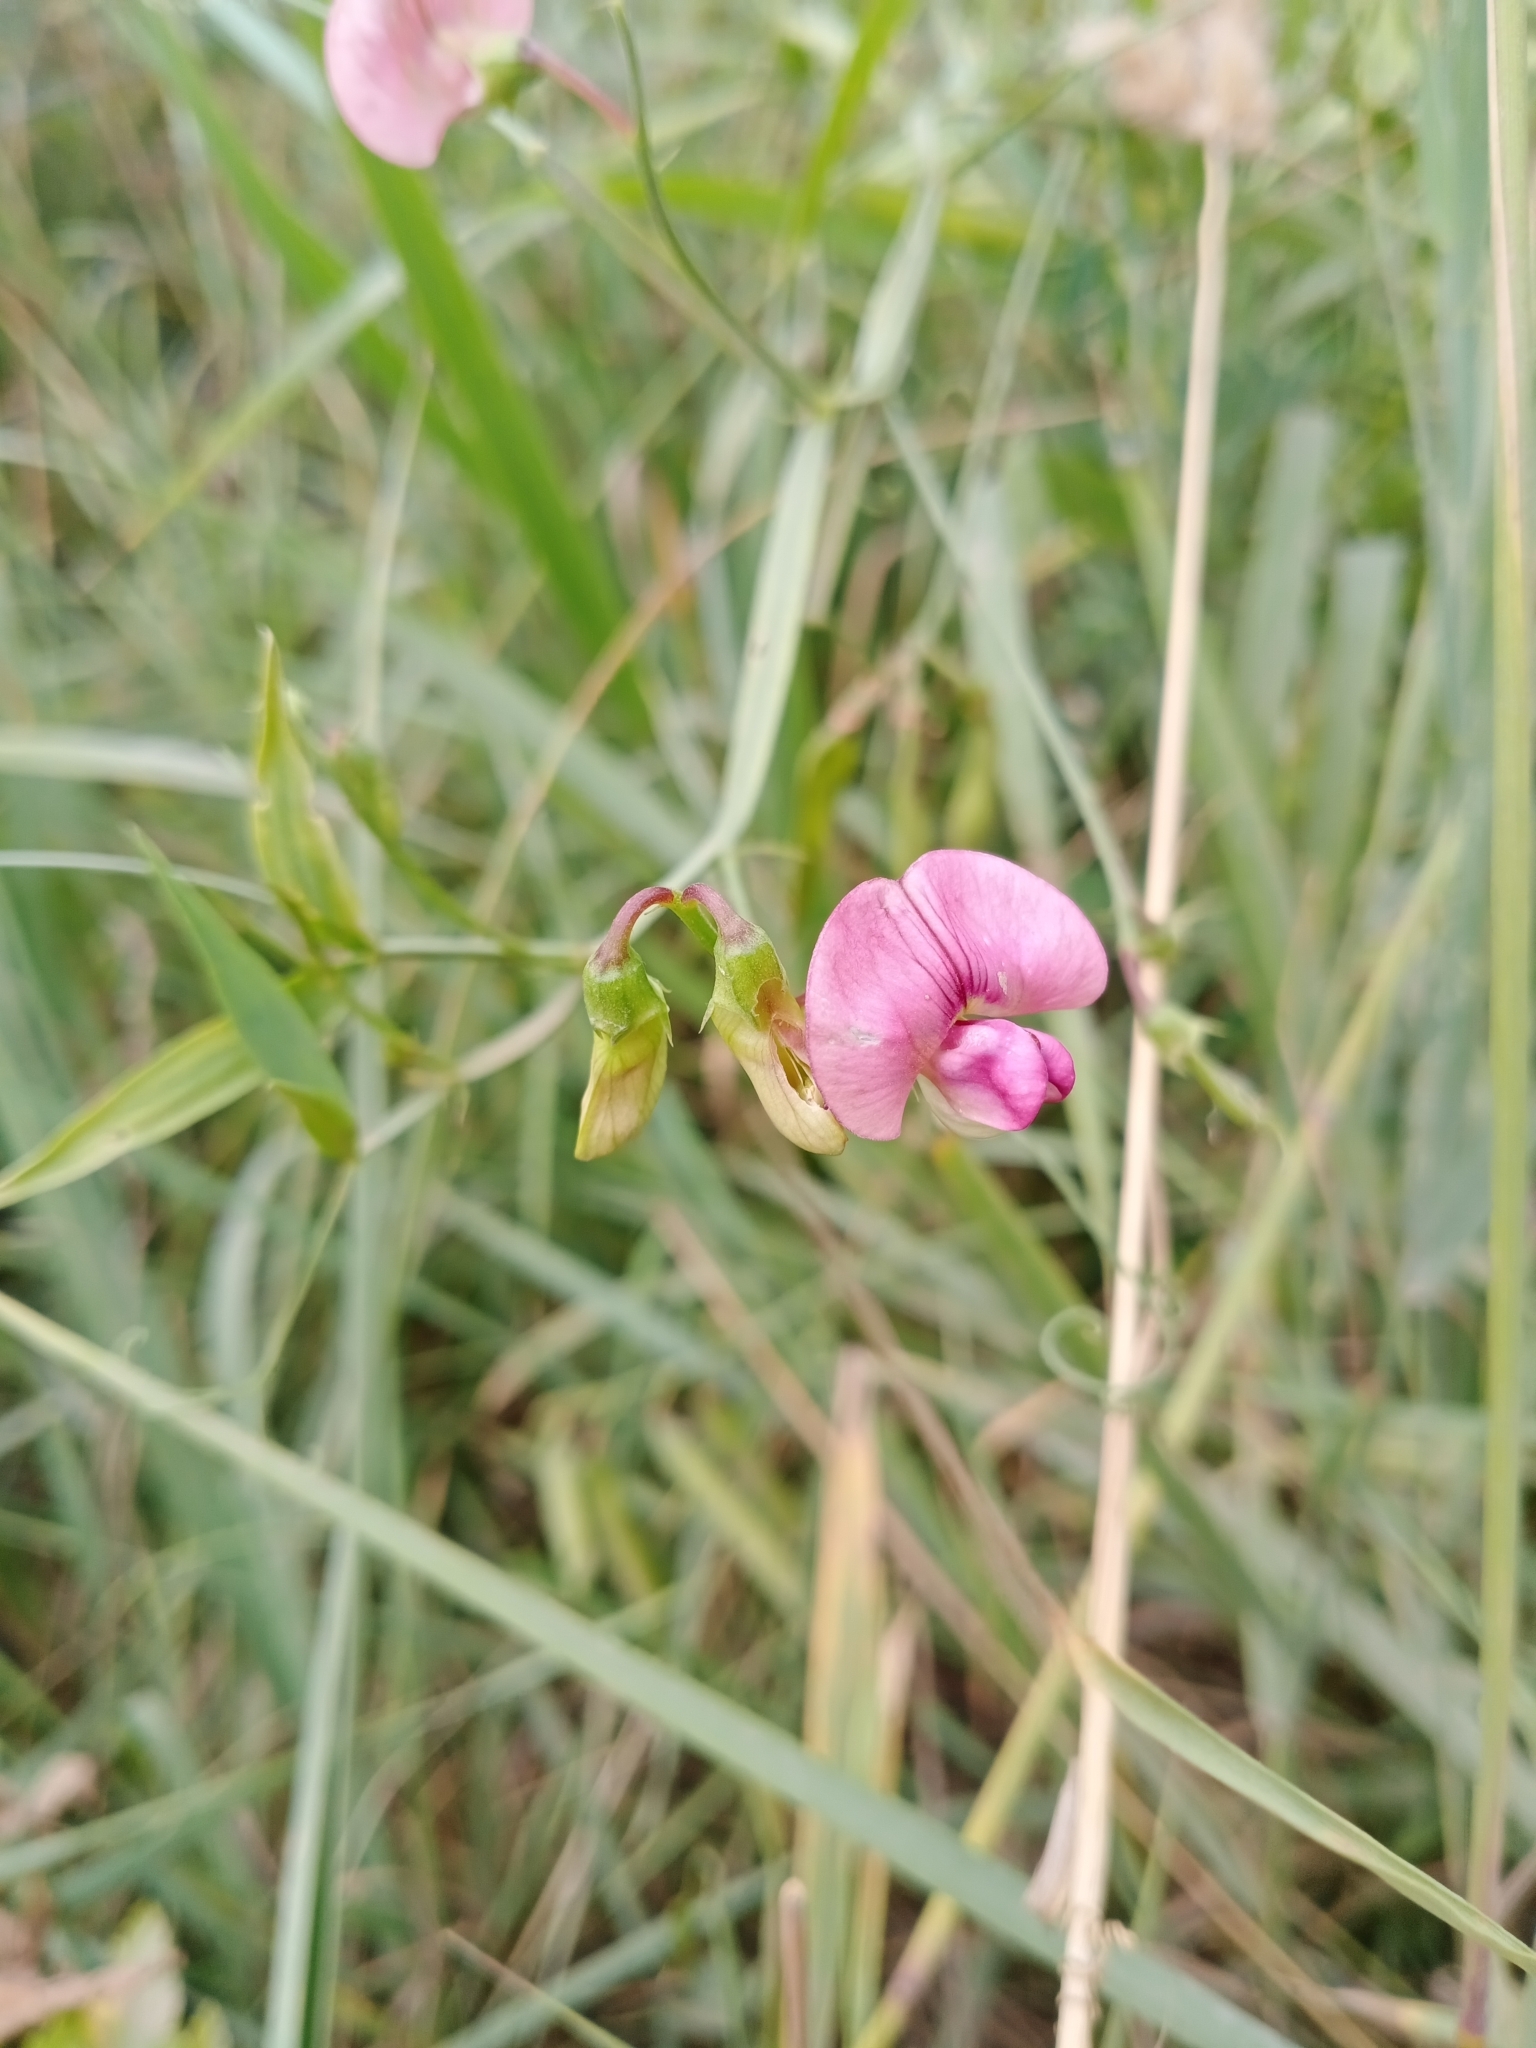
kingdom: Plantae
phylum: Tracheophyta
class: Magnoliopsida
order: Fabales
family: Fabaceae
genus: Lathyrus
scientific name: Lathyrus sylvestris
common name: Flat pea
